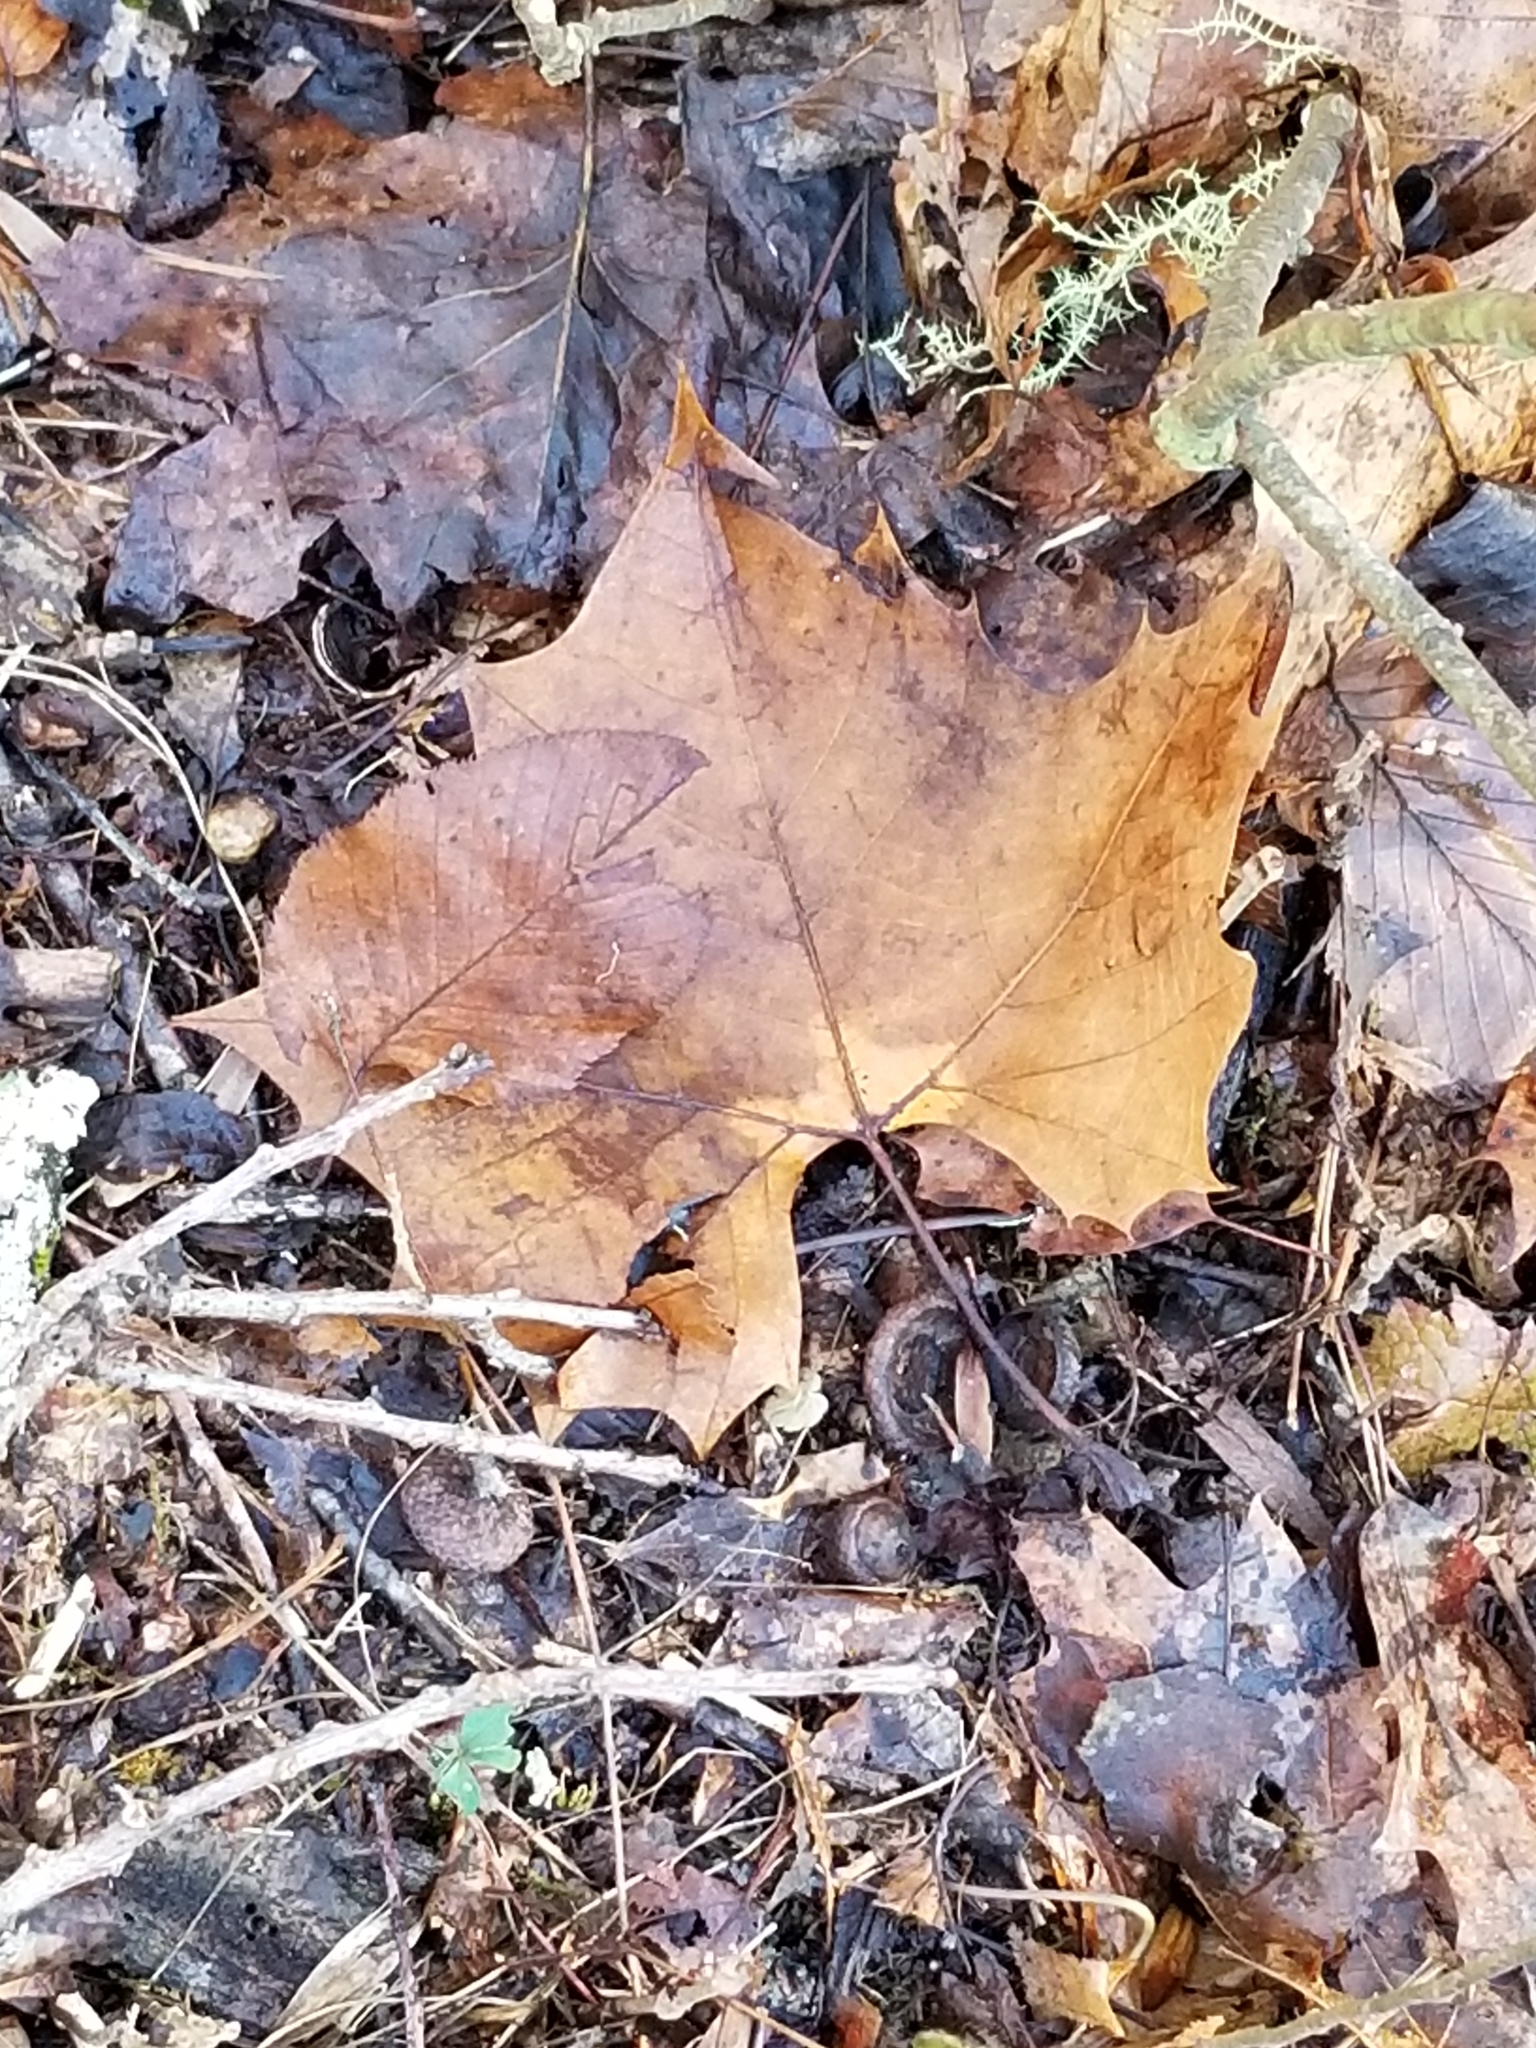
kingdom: Plantae
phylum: Tracheophyta
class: Magnoliopsida
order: Proteales
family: Platanaceae
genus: Platanus
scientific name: Platanus occidentalis
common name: American sycamore
